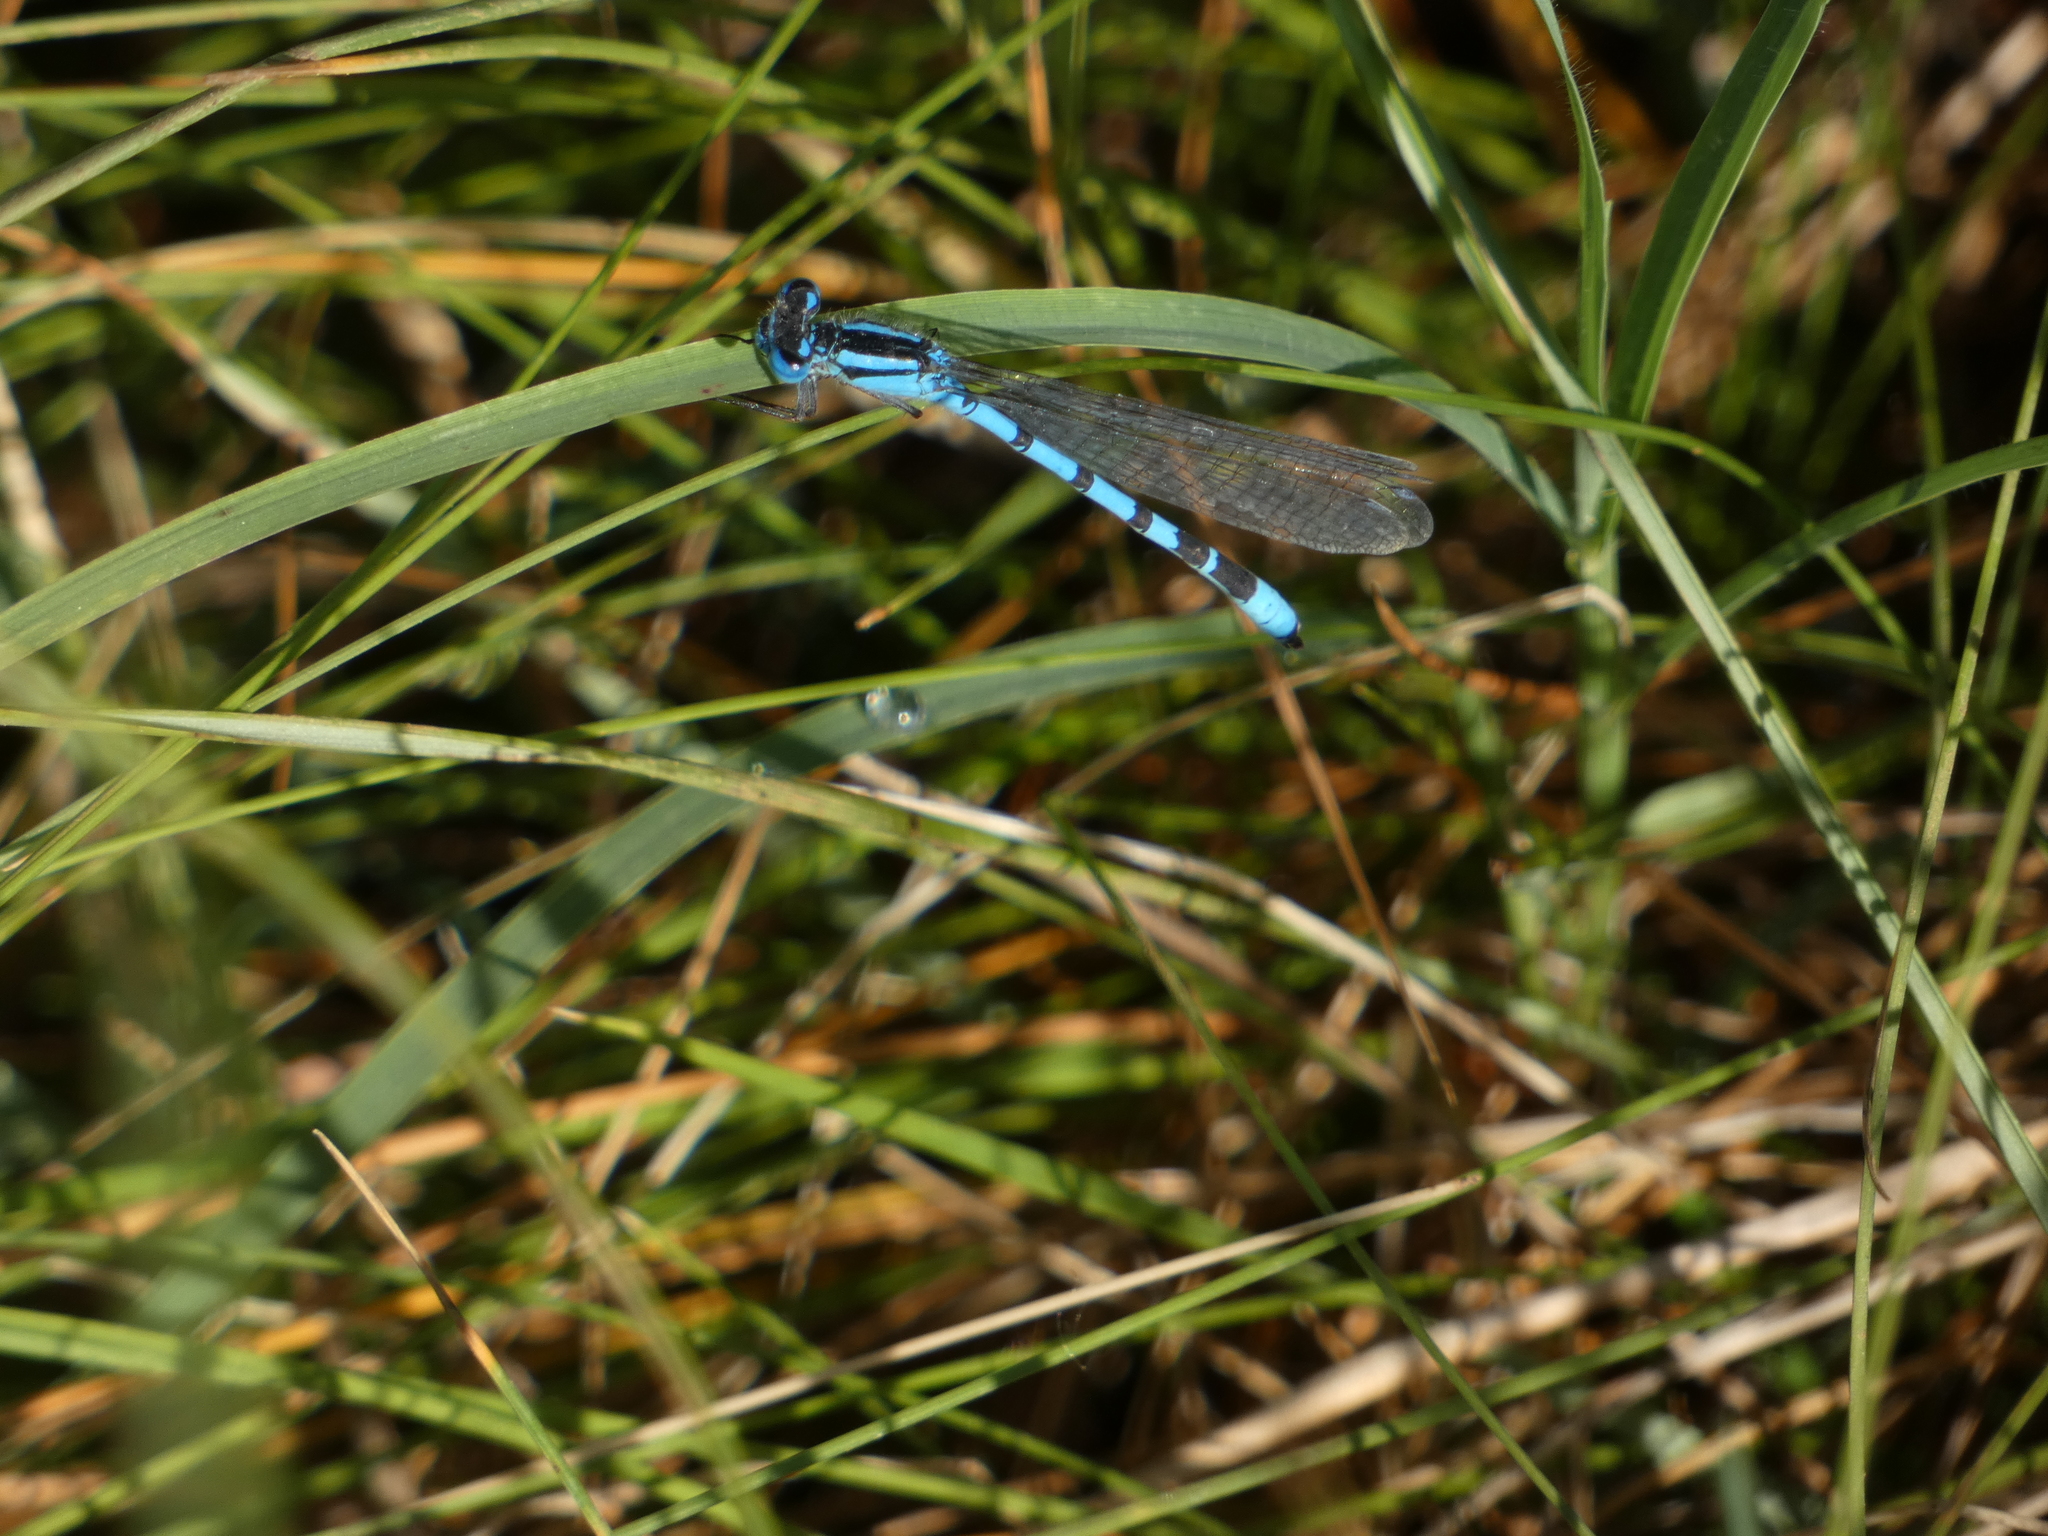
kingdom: Animalia
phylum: Arthropoda
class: Insecta
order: Odonata
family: Coenagrionidae
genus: Enallagma
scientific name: Enallagma cyathigerum
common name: Common blue damselfly
